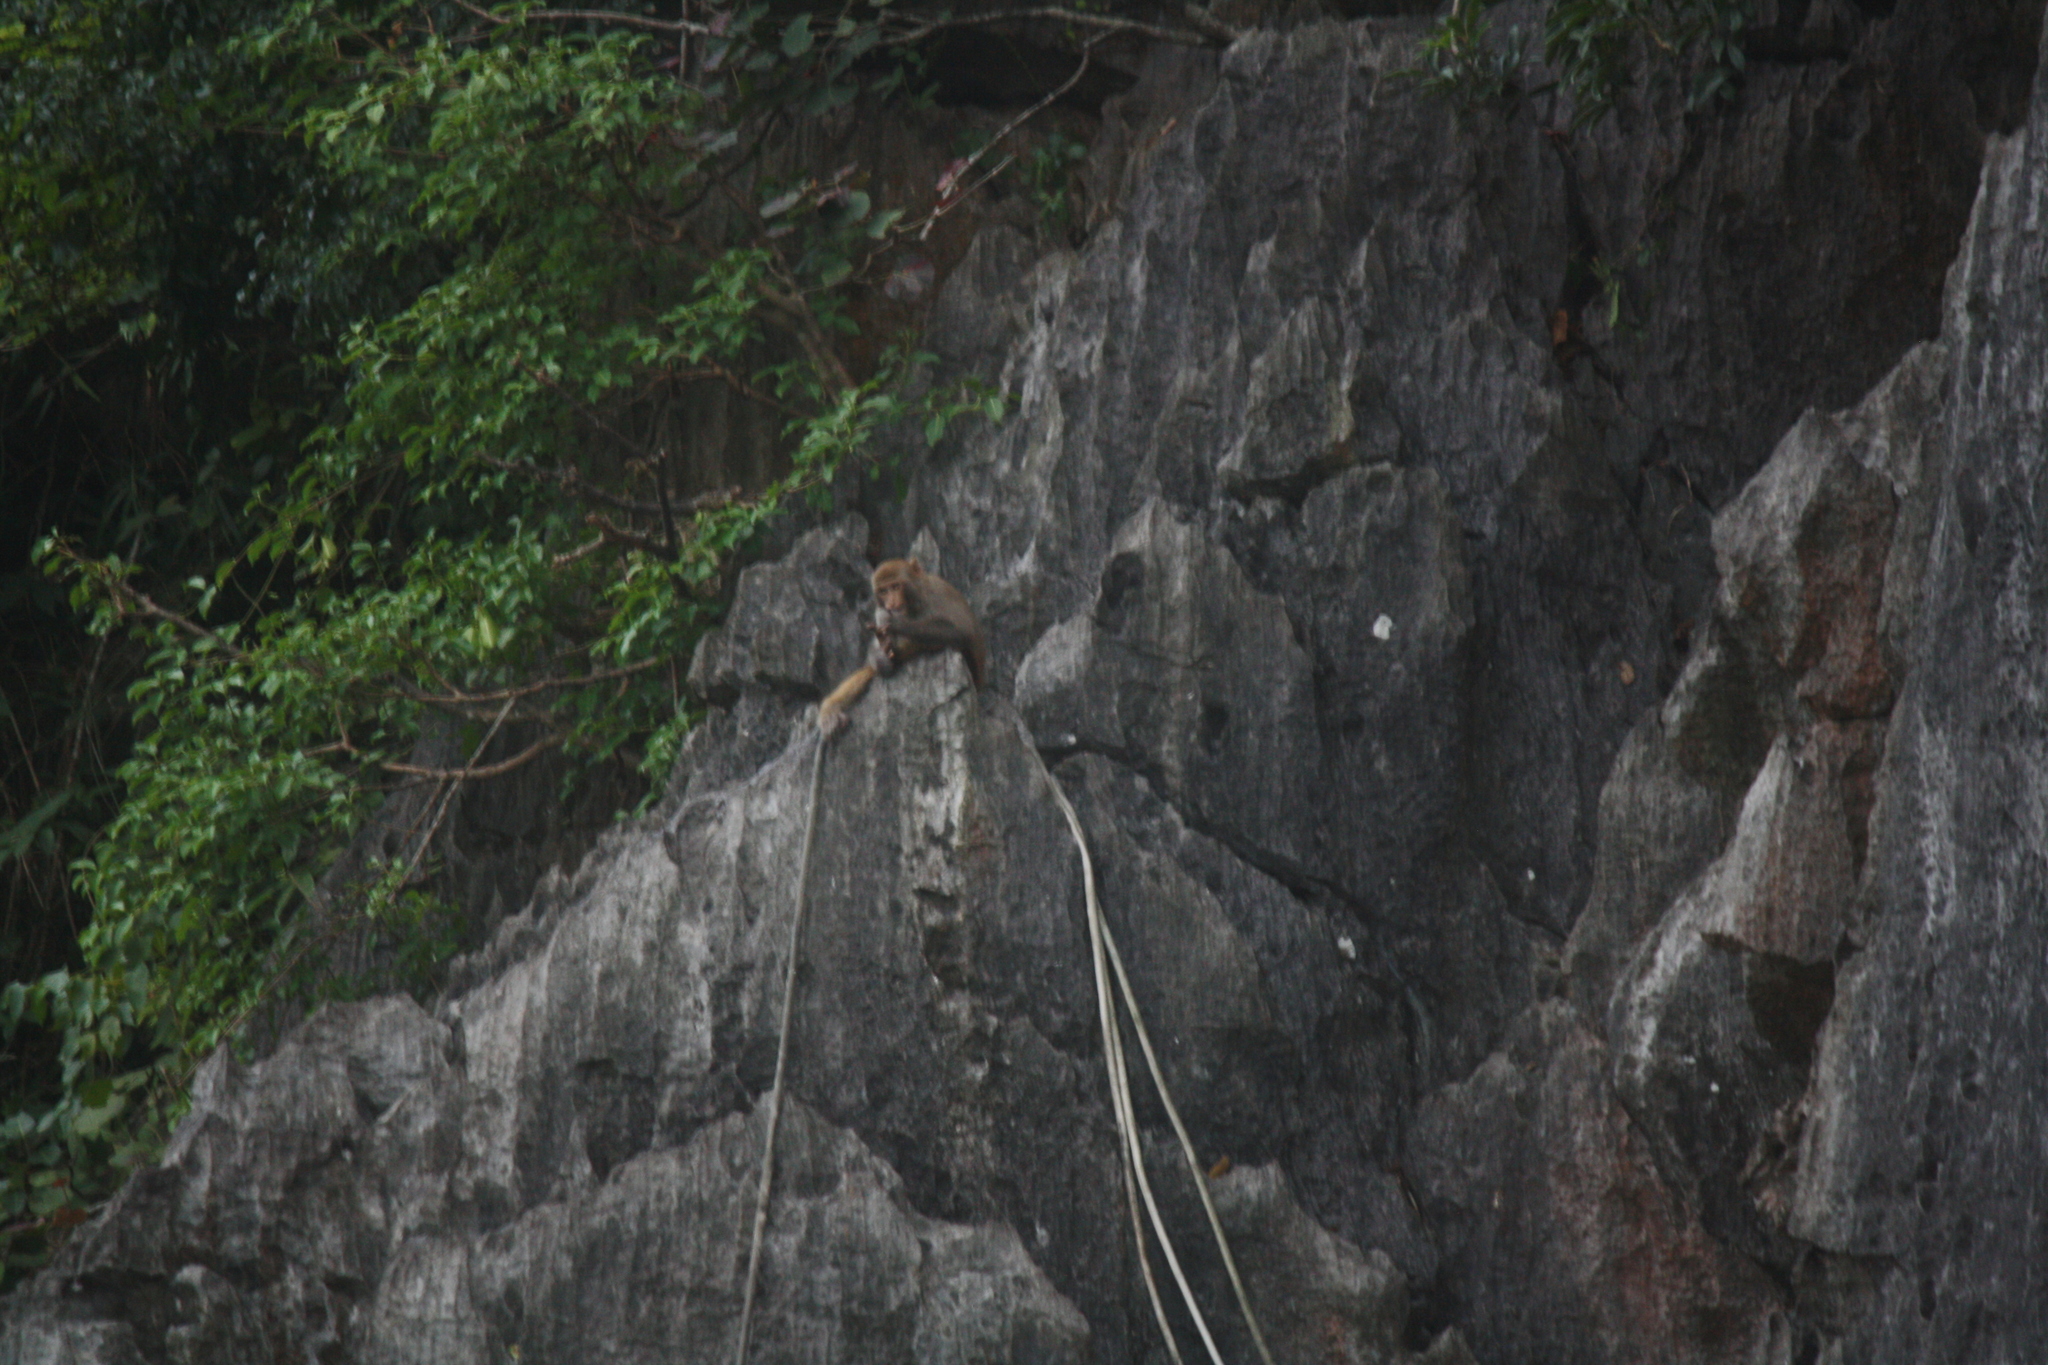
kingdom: Animalia
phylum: Chordata
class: Mammalia
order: Primates
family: Cercopithecidae
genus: Macaca
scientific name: Macaca mulatta
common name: Rhesus monkey
